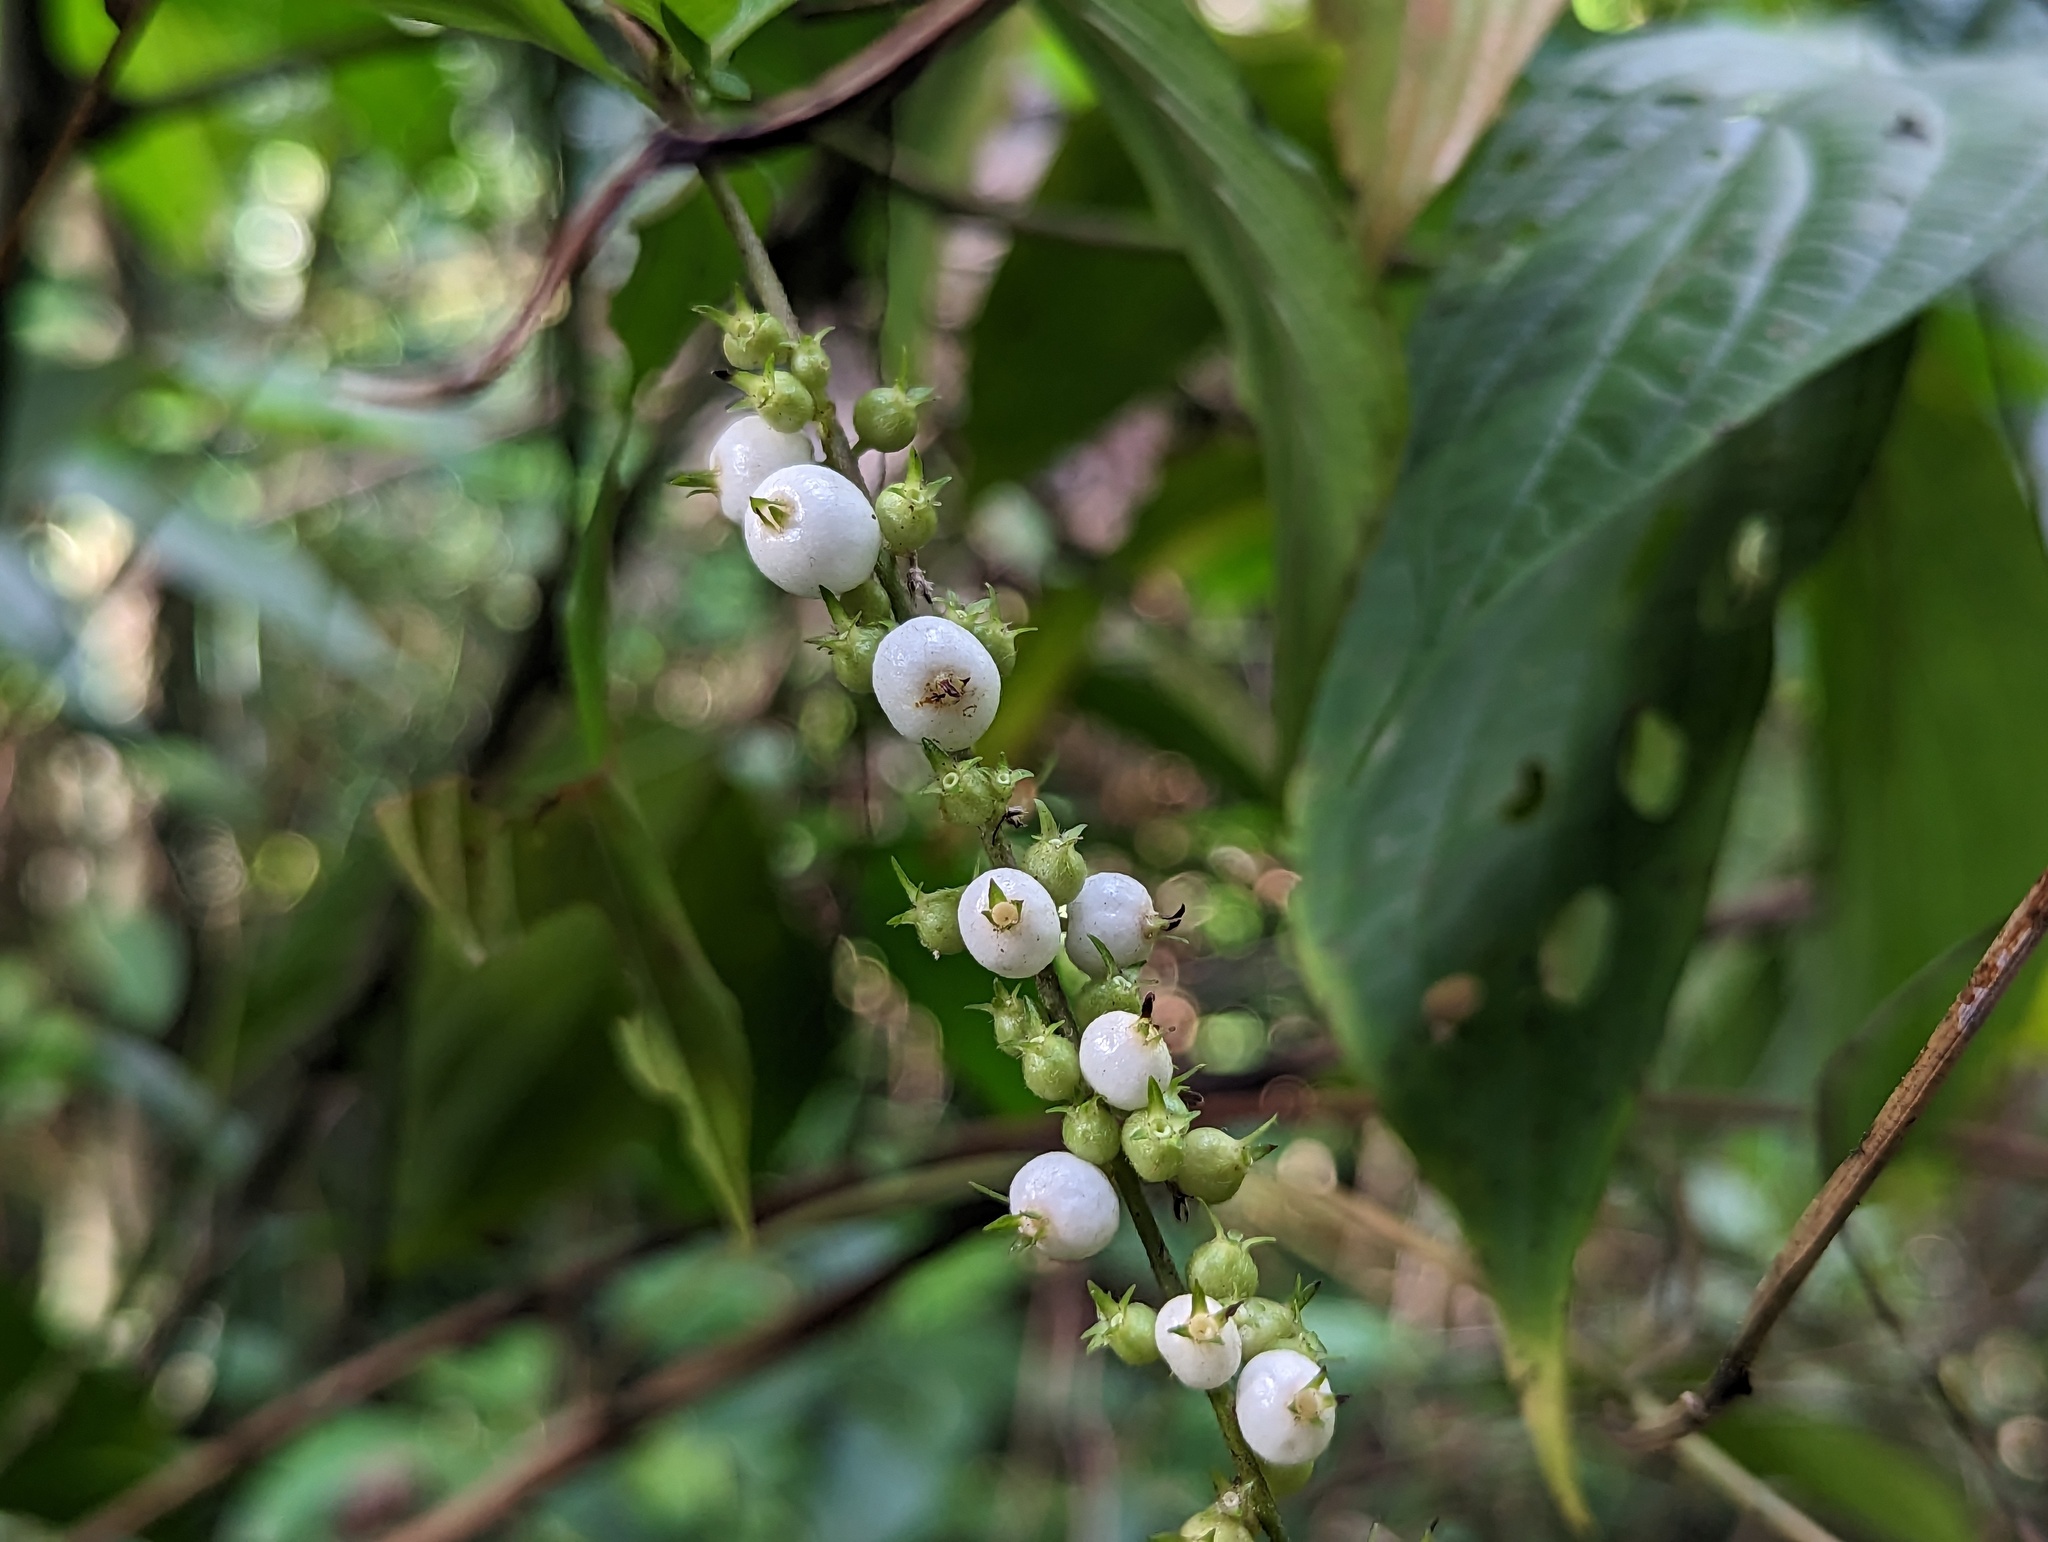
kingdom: Plantae
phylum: Tracheophyta
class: Magnoliopsida
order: Gentianales
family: Rubiaceae
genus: Gonzalagunia
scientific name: Gonzalagunia hirsuta
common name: Mata de mariposa
